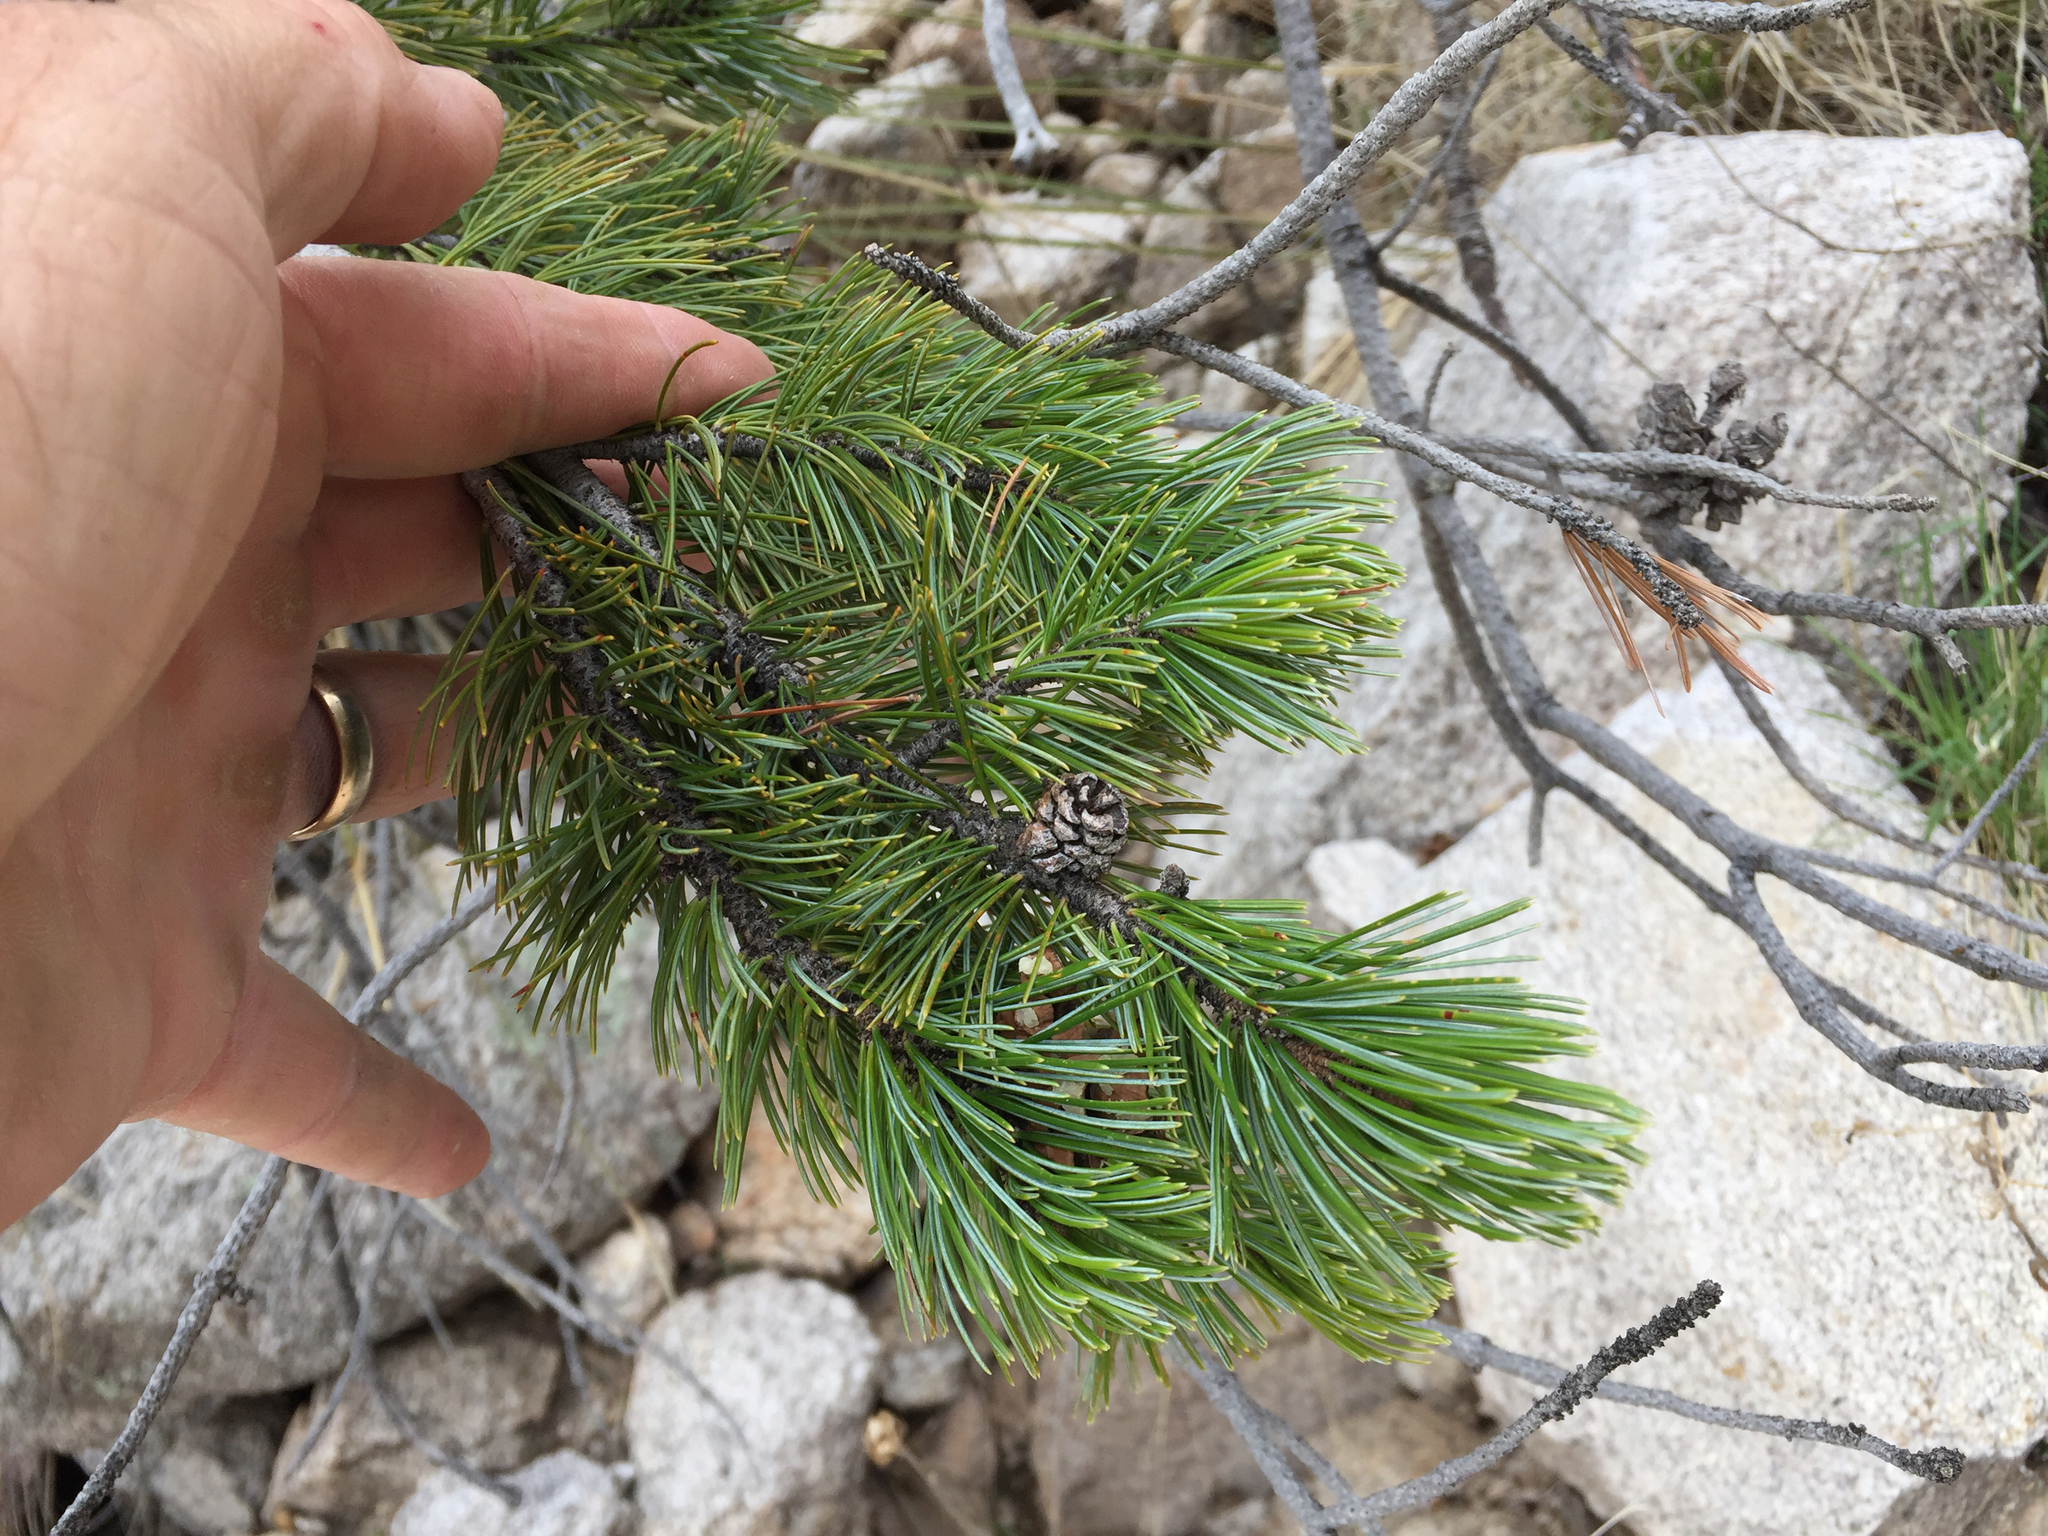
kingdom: Plantae
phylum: Tracheophyta
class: Pinopsida
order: Pinales
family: Pinaceae
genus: Pinus
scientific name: Pinus discolor
